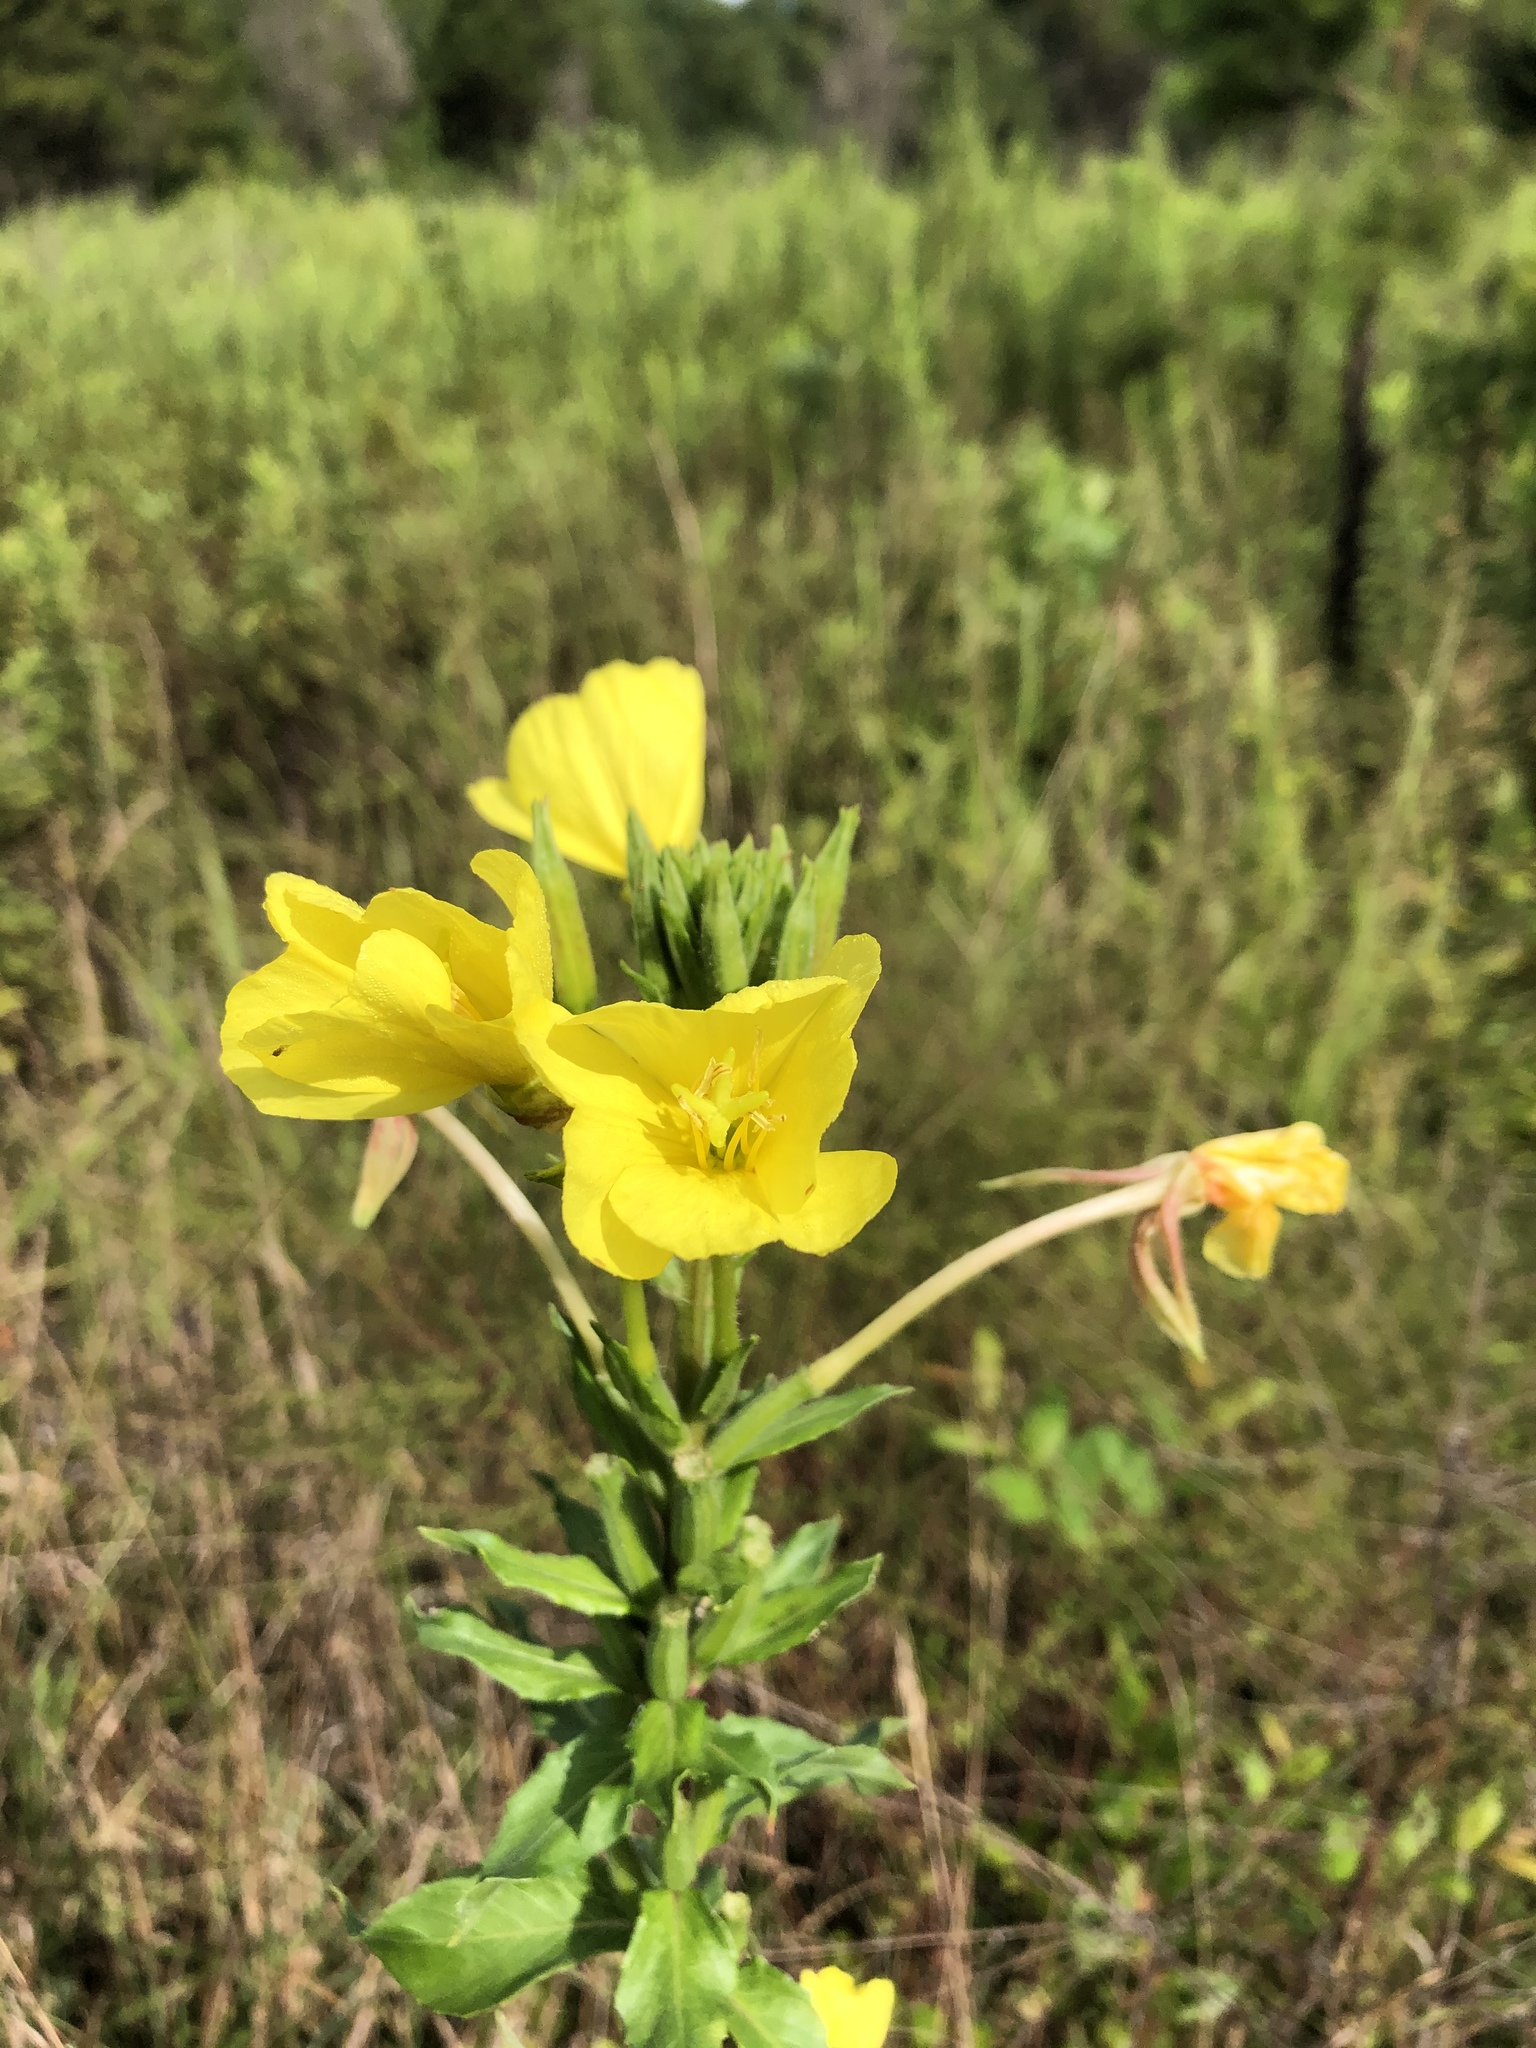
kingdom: Plantae
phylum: Tracheophyta
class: Magnoliopsida
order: Myrtales
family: Onagraceae
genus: Oenothera
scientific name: Oenothera biennis
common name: Common evening-primrose
